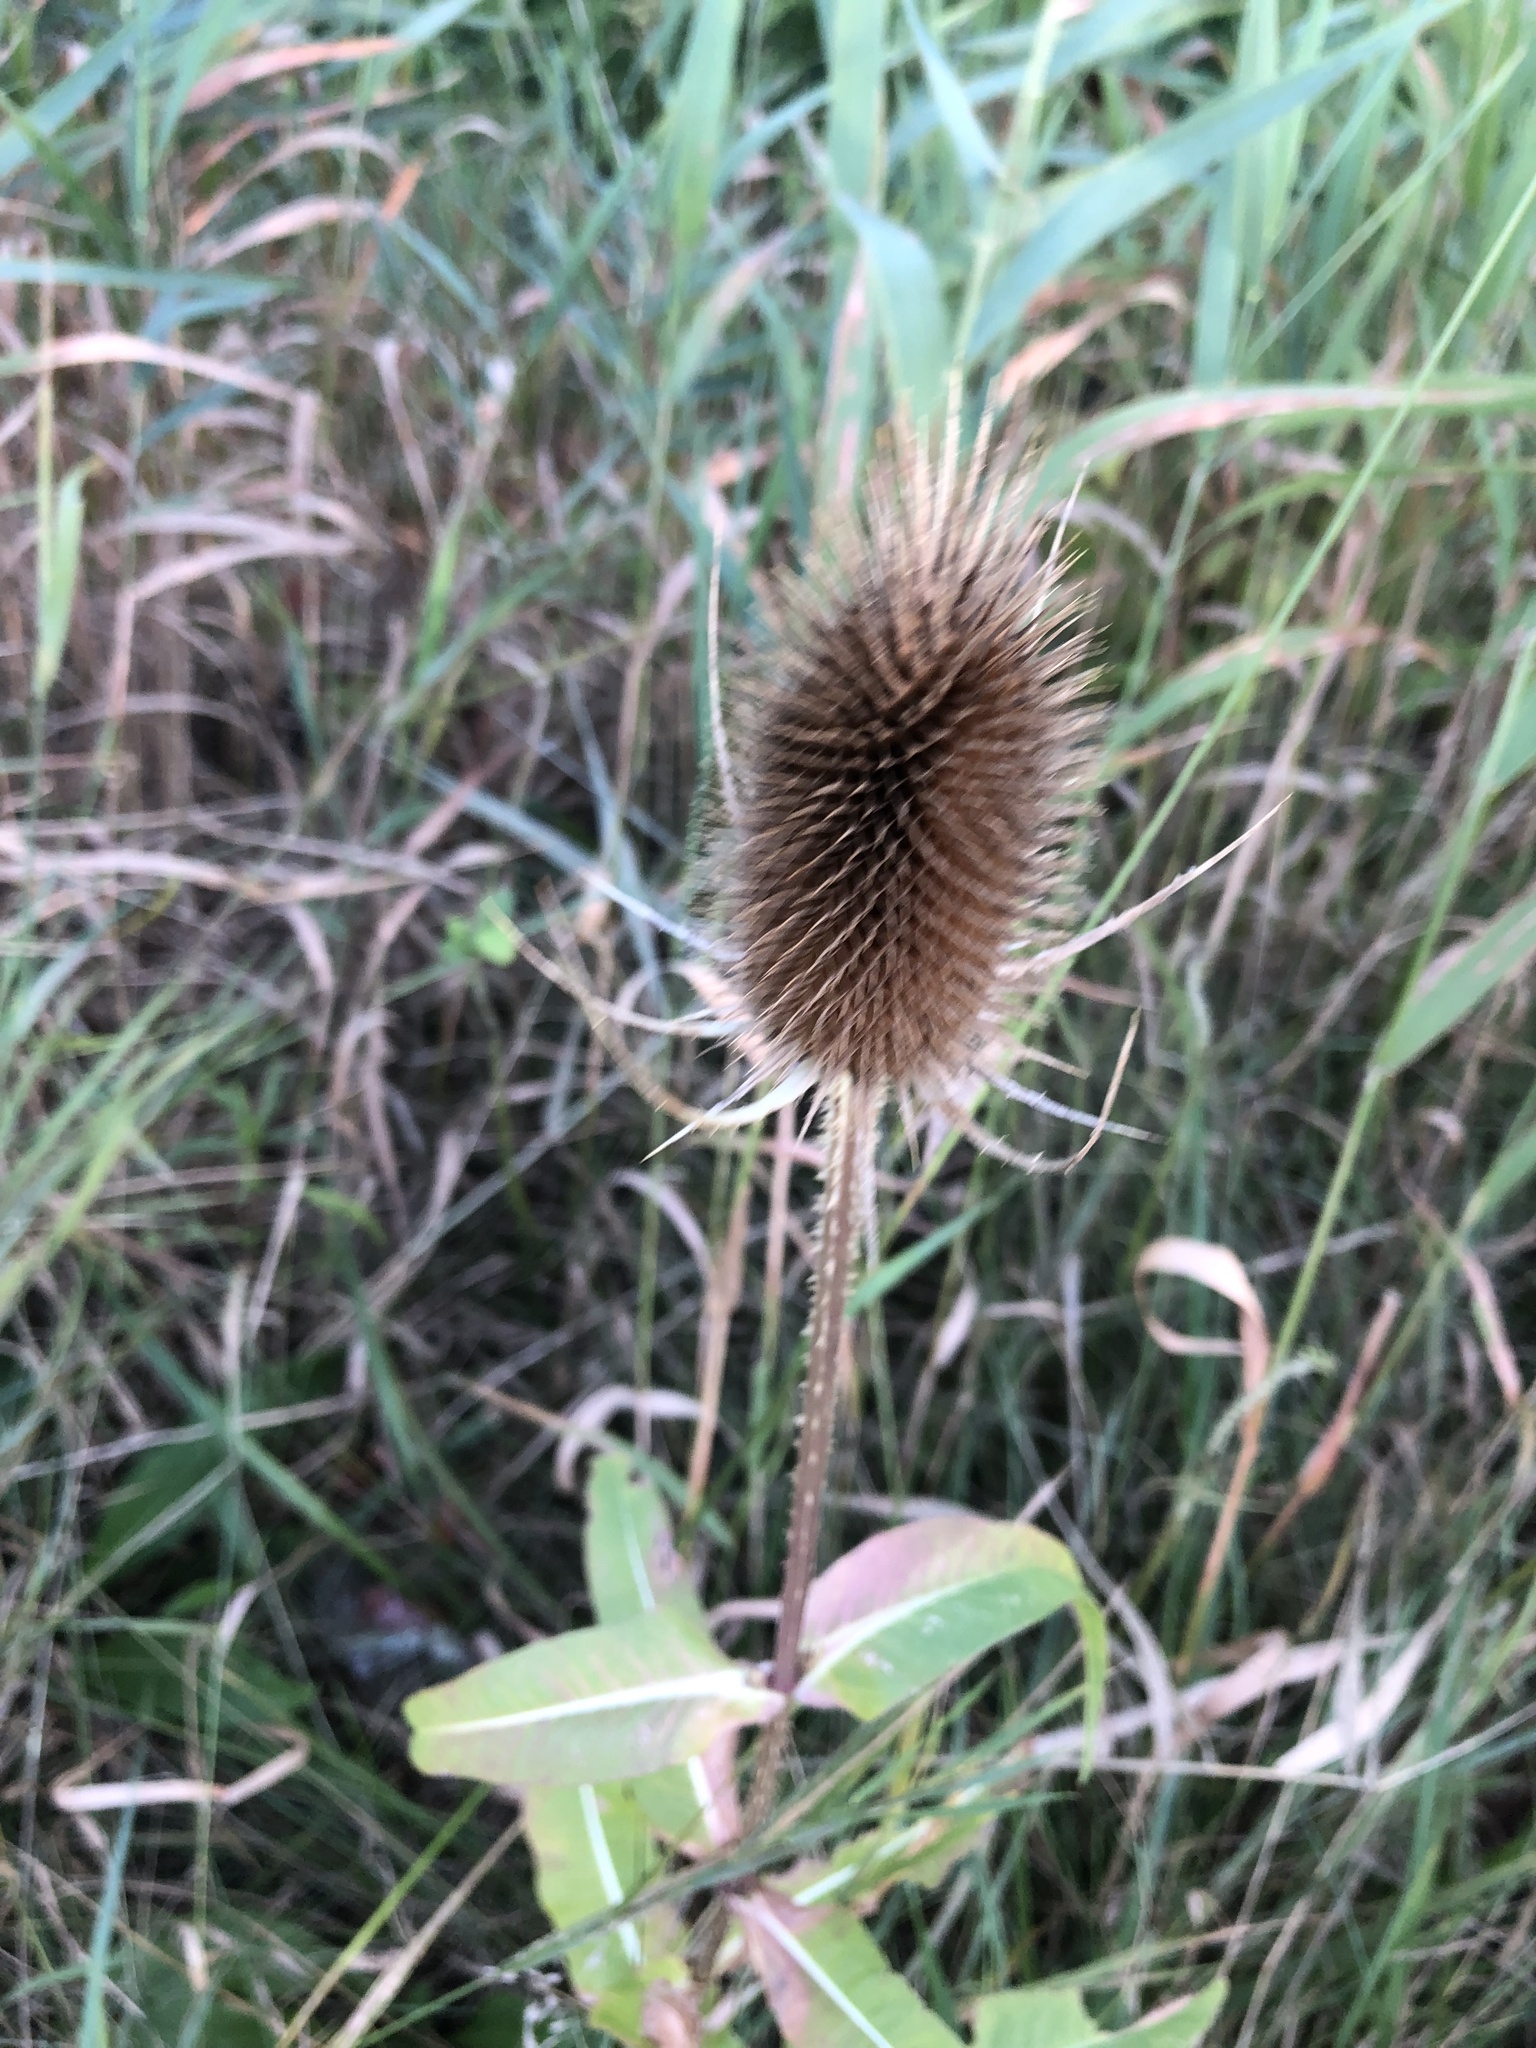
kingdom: Plantae
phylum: Tracheophyta
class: Magnoliopsida
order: Dipsacales
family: Caprifoliaceae
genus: Dipsacus
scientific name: Dipsacus fullonum
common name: Teasel
